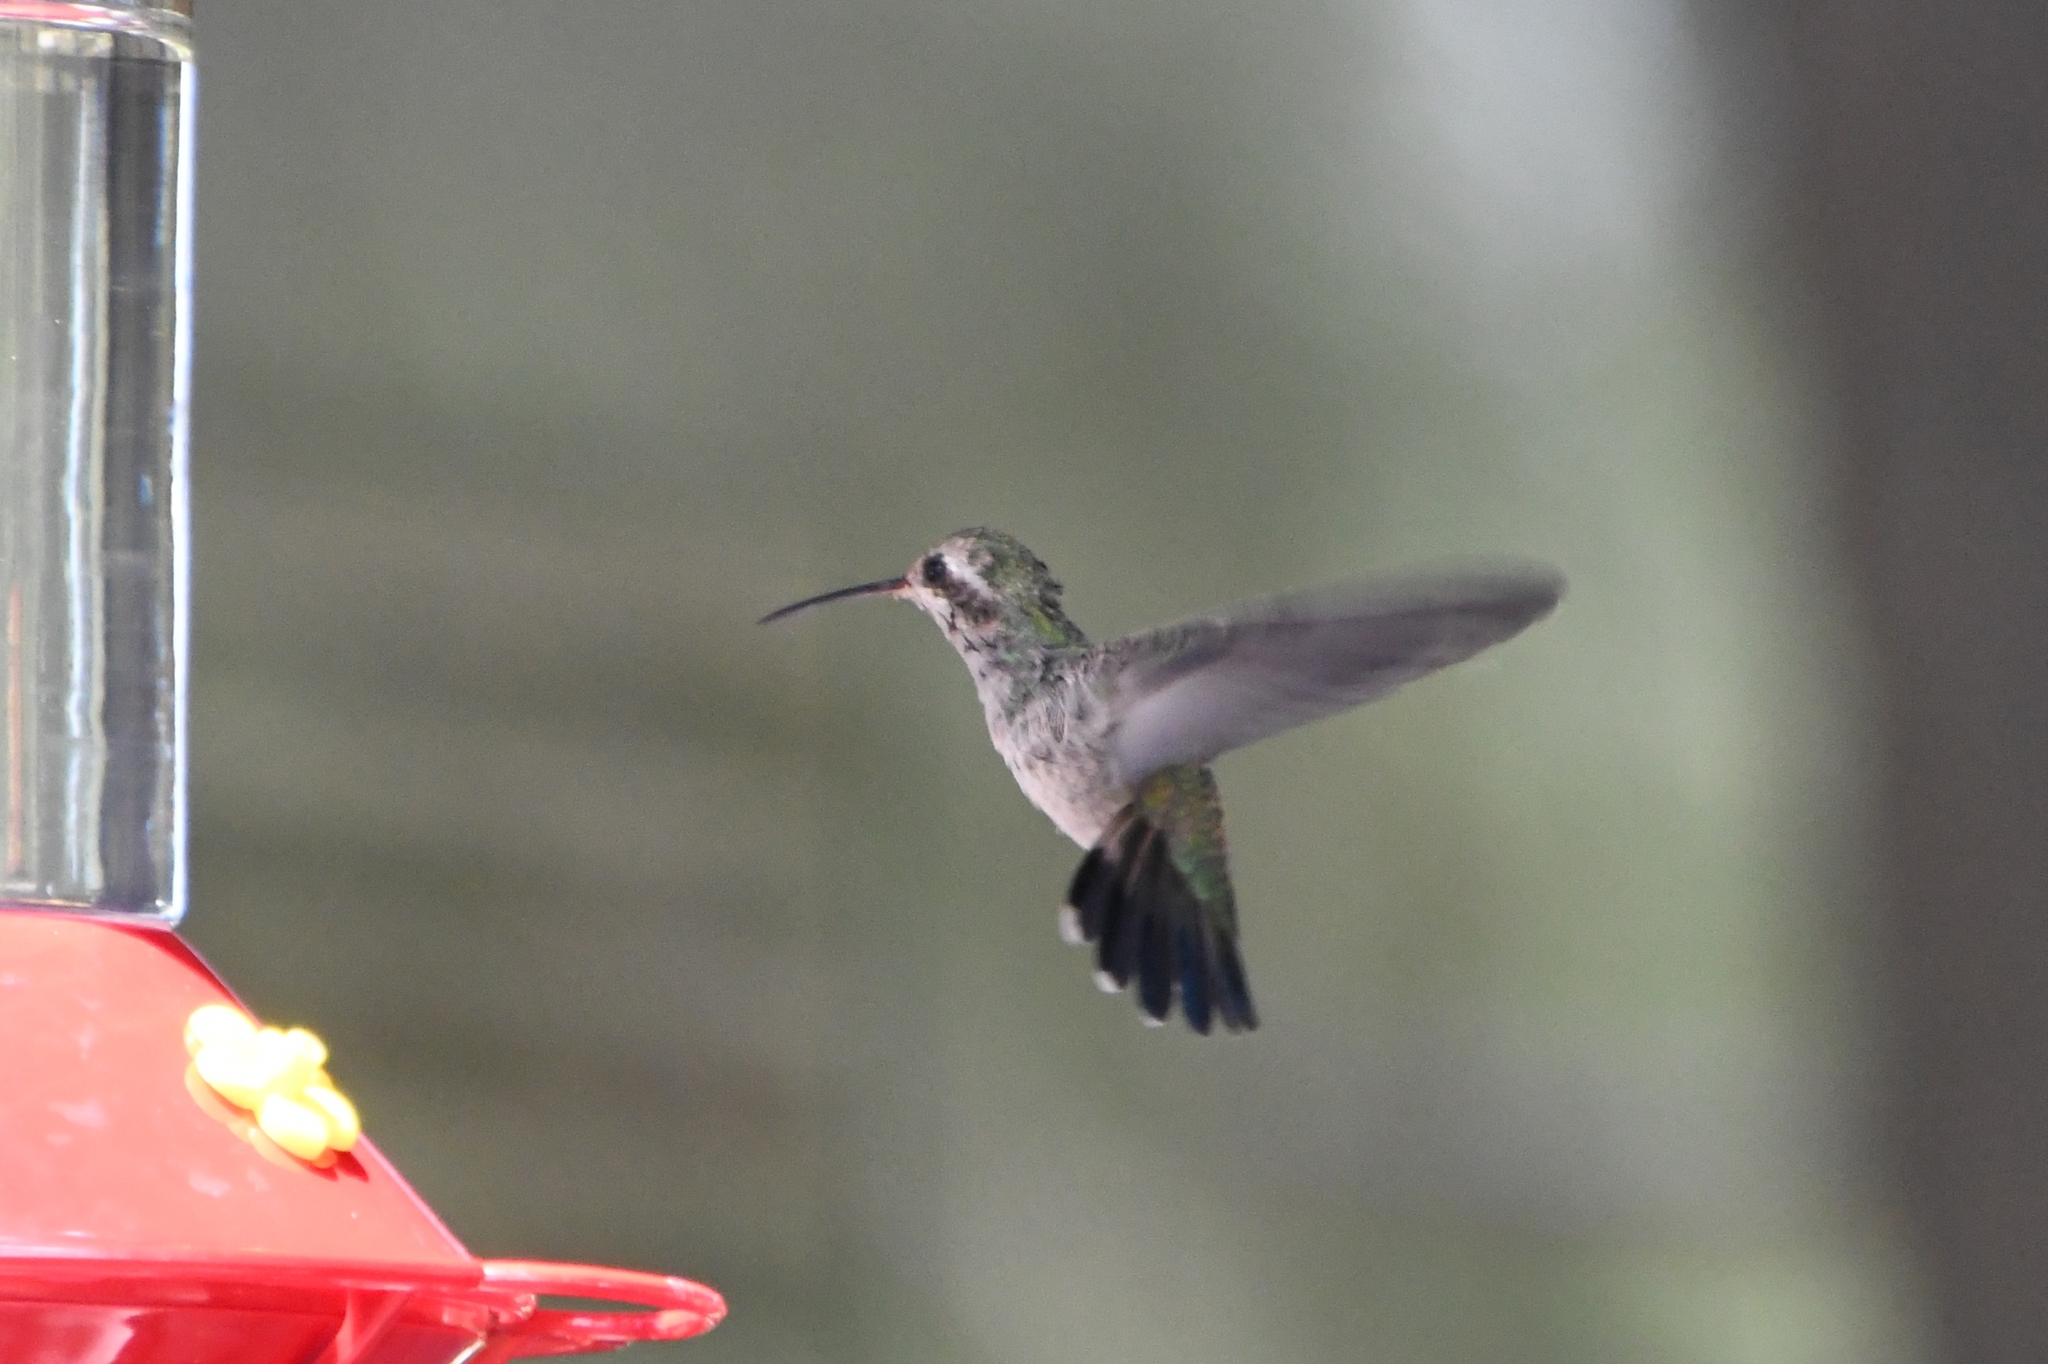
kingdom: Animalia
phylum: Chordata
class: Aves
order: Apodiformes
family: Trochilidae
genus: Cynanthus
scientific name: Cynanthus latirostris
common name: Broad-billed hummingbird
